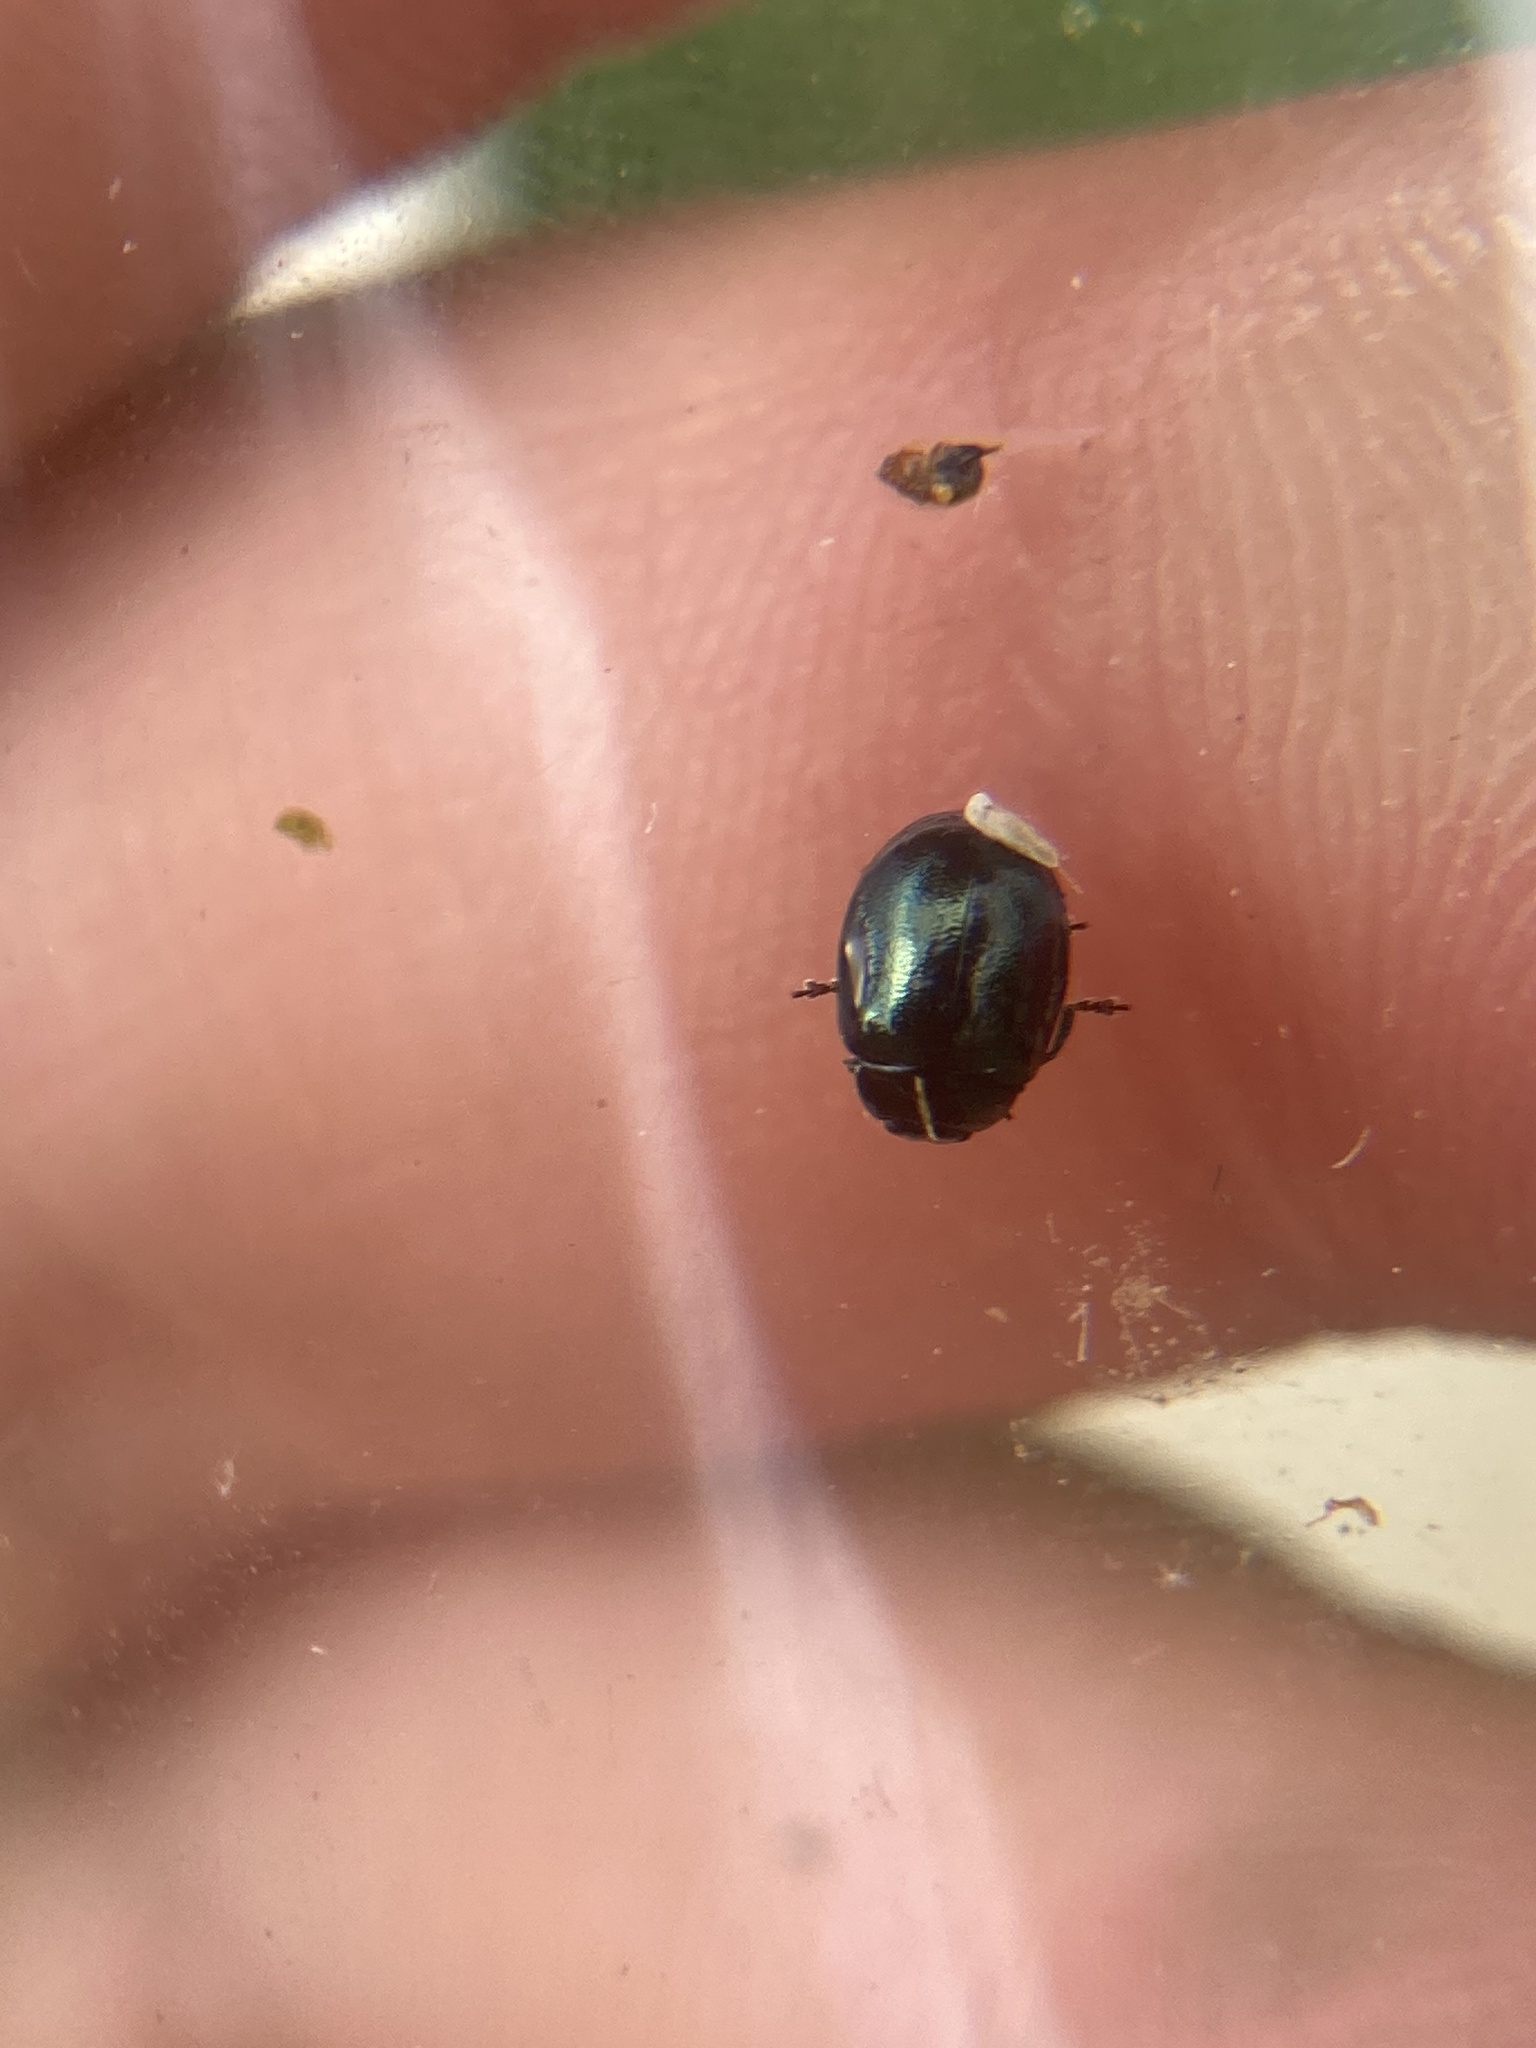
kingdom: Animalia
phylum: Arthropoda
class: Insecta
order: Coleoptera
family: Chrysomelidae
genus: Plagiodera
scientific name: Plagiodera versicolora
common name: Imported willow leaf beetle
